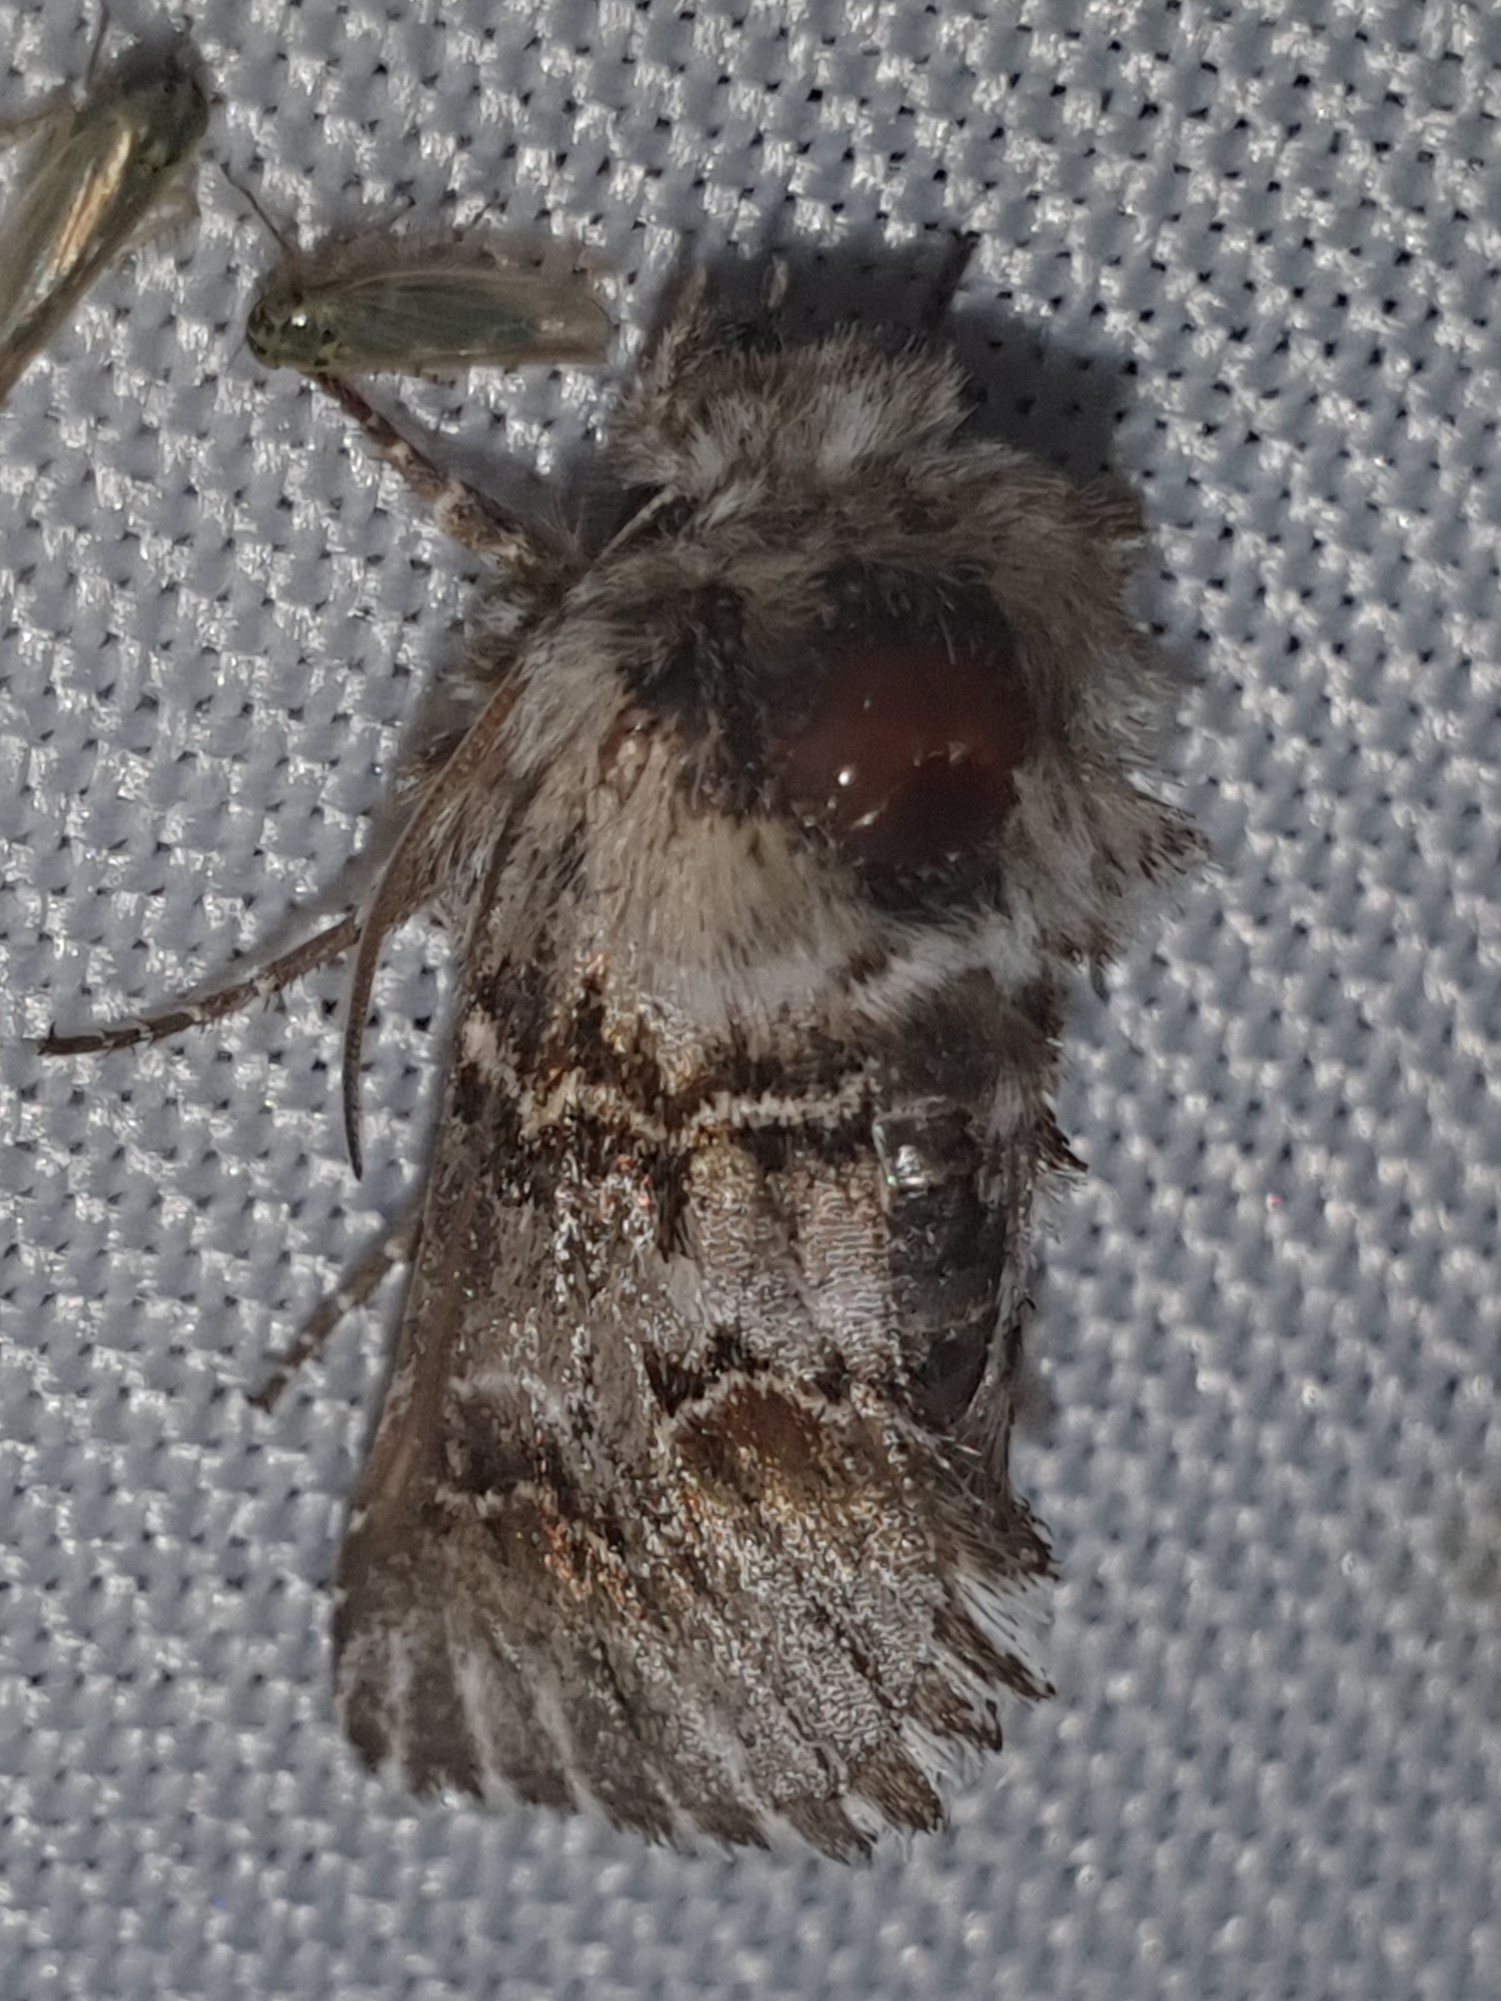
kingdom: Animalia
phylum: Arthropoda
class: Insecta
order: Lepidoptera
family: Noctuidae
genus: Cleonymia
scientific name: Cleonymia baetica
